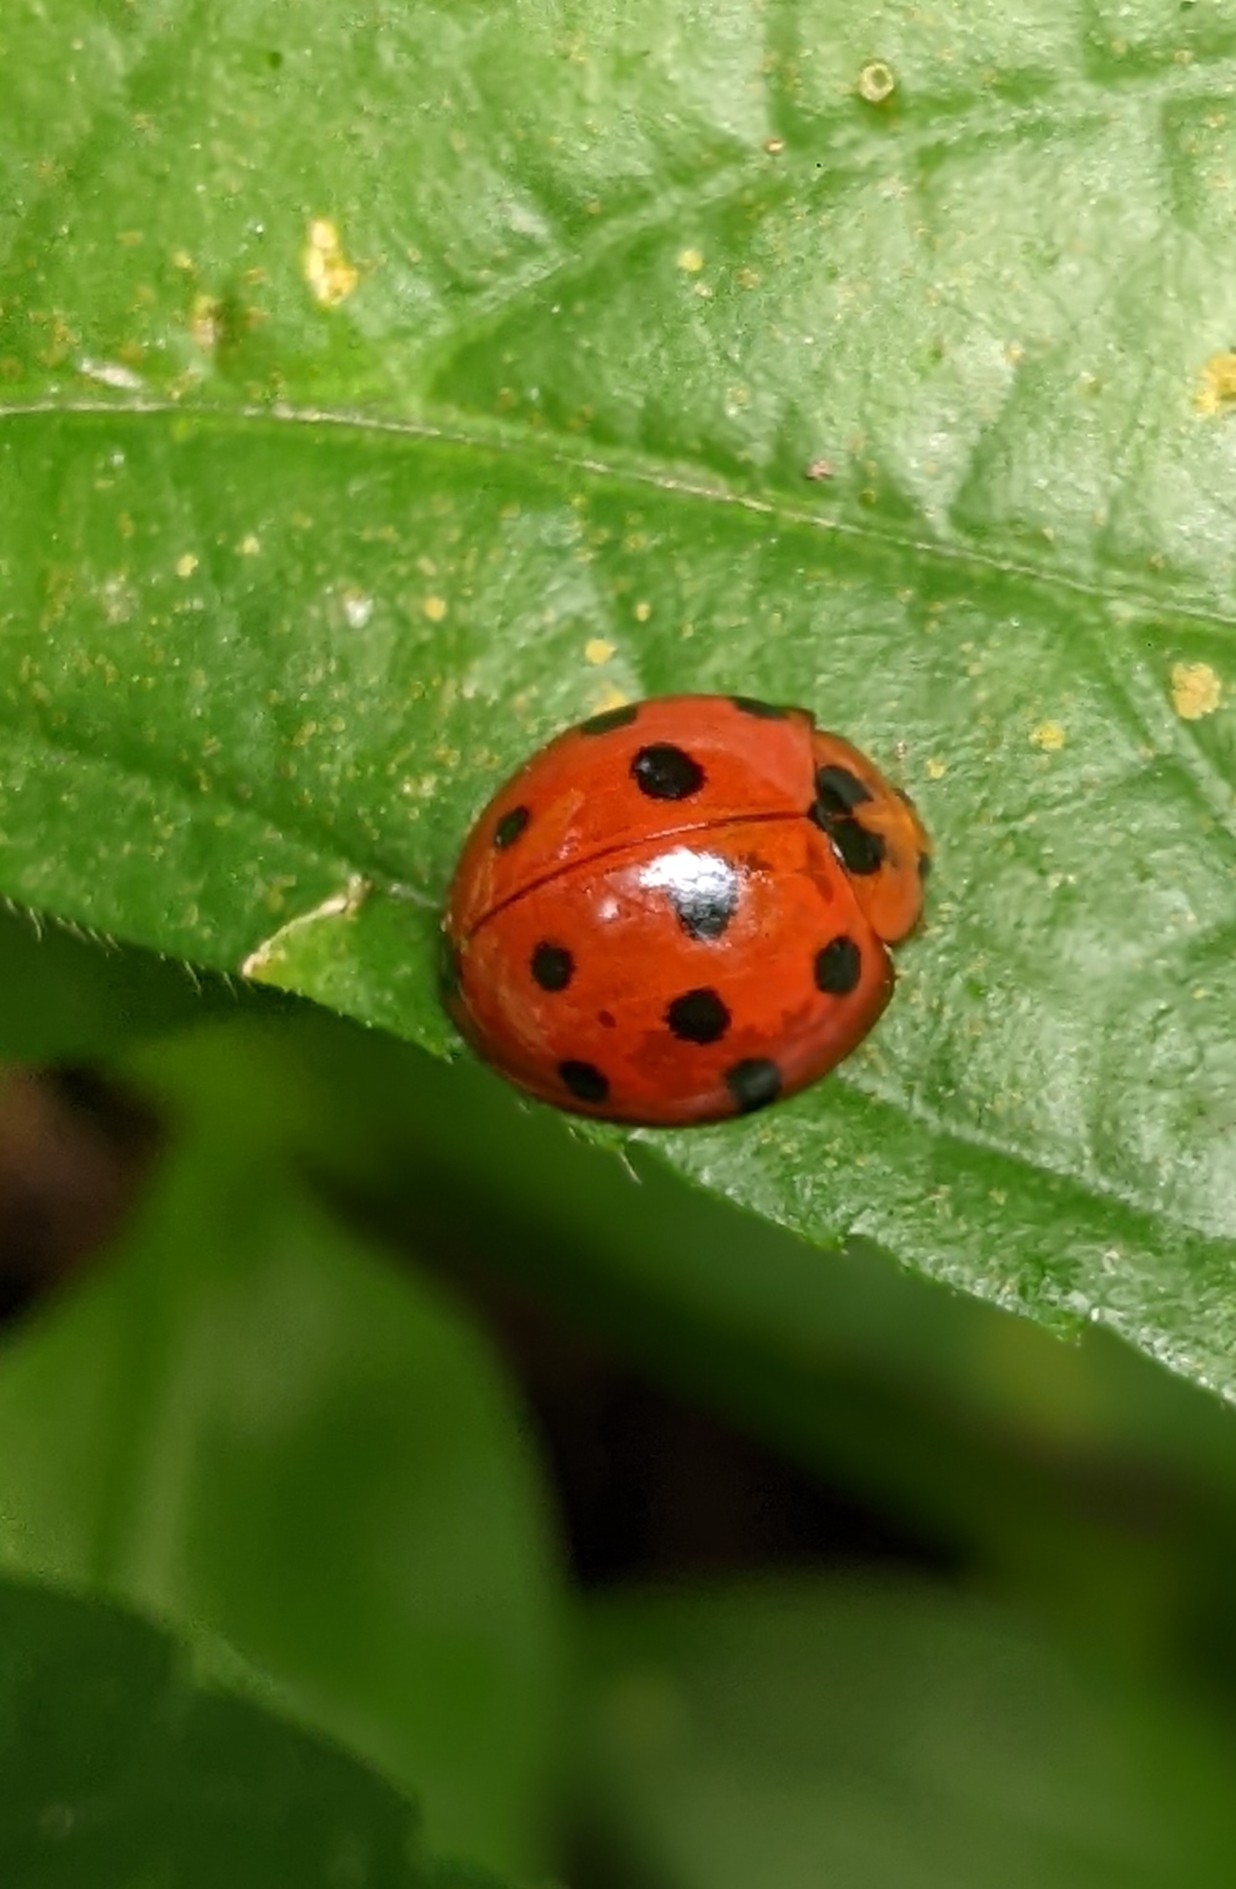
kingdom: Animalia
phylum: Arthropoda
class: Insecta
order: Coleoptera
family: Coccinellidae
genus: Harmonia
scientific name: Harmonia dimidiata
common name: Ladybird beetle
